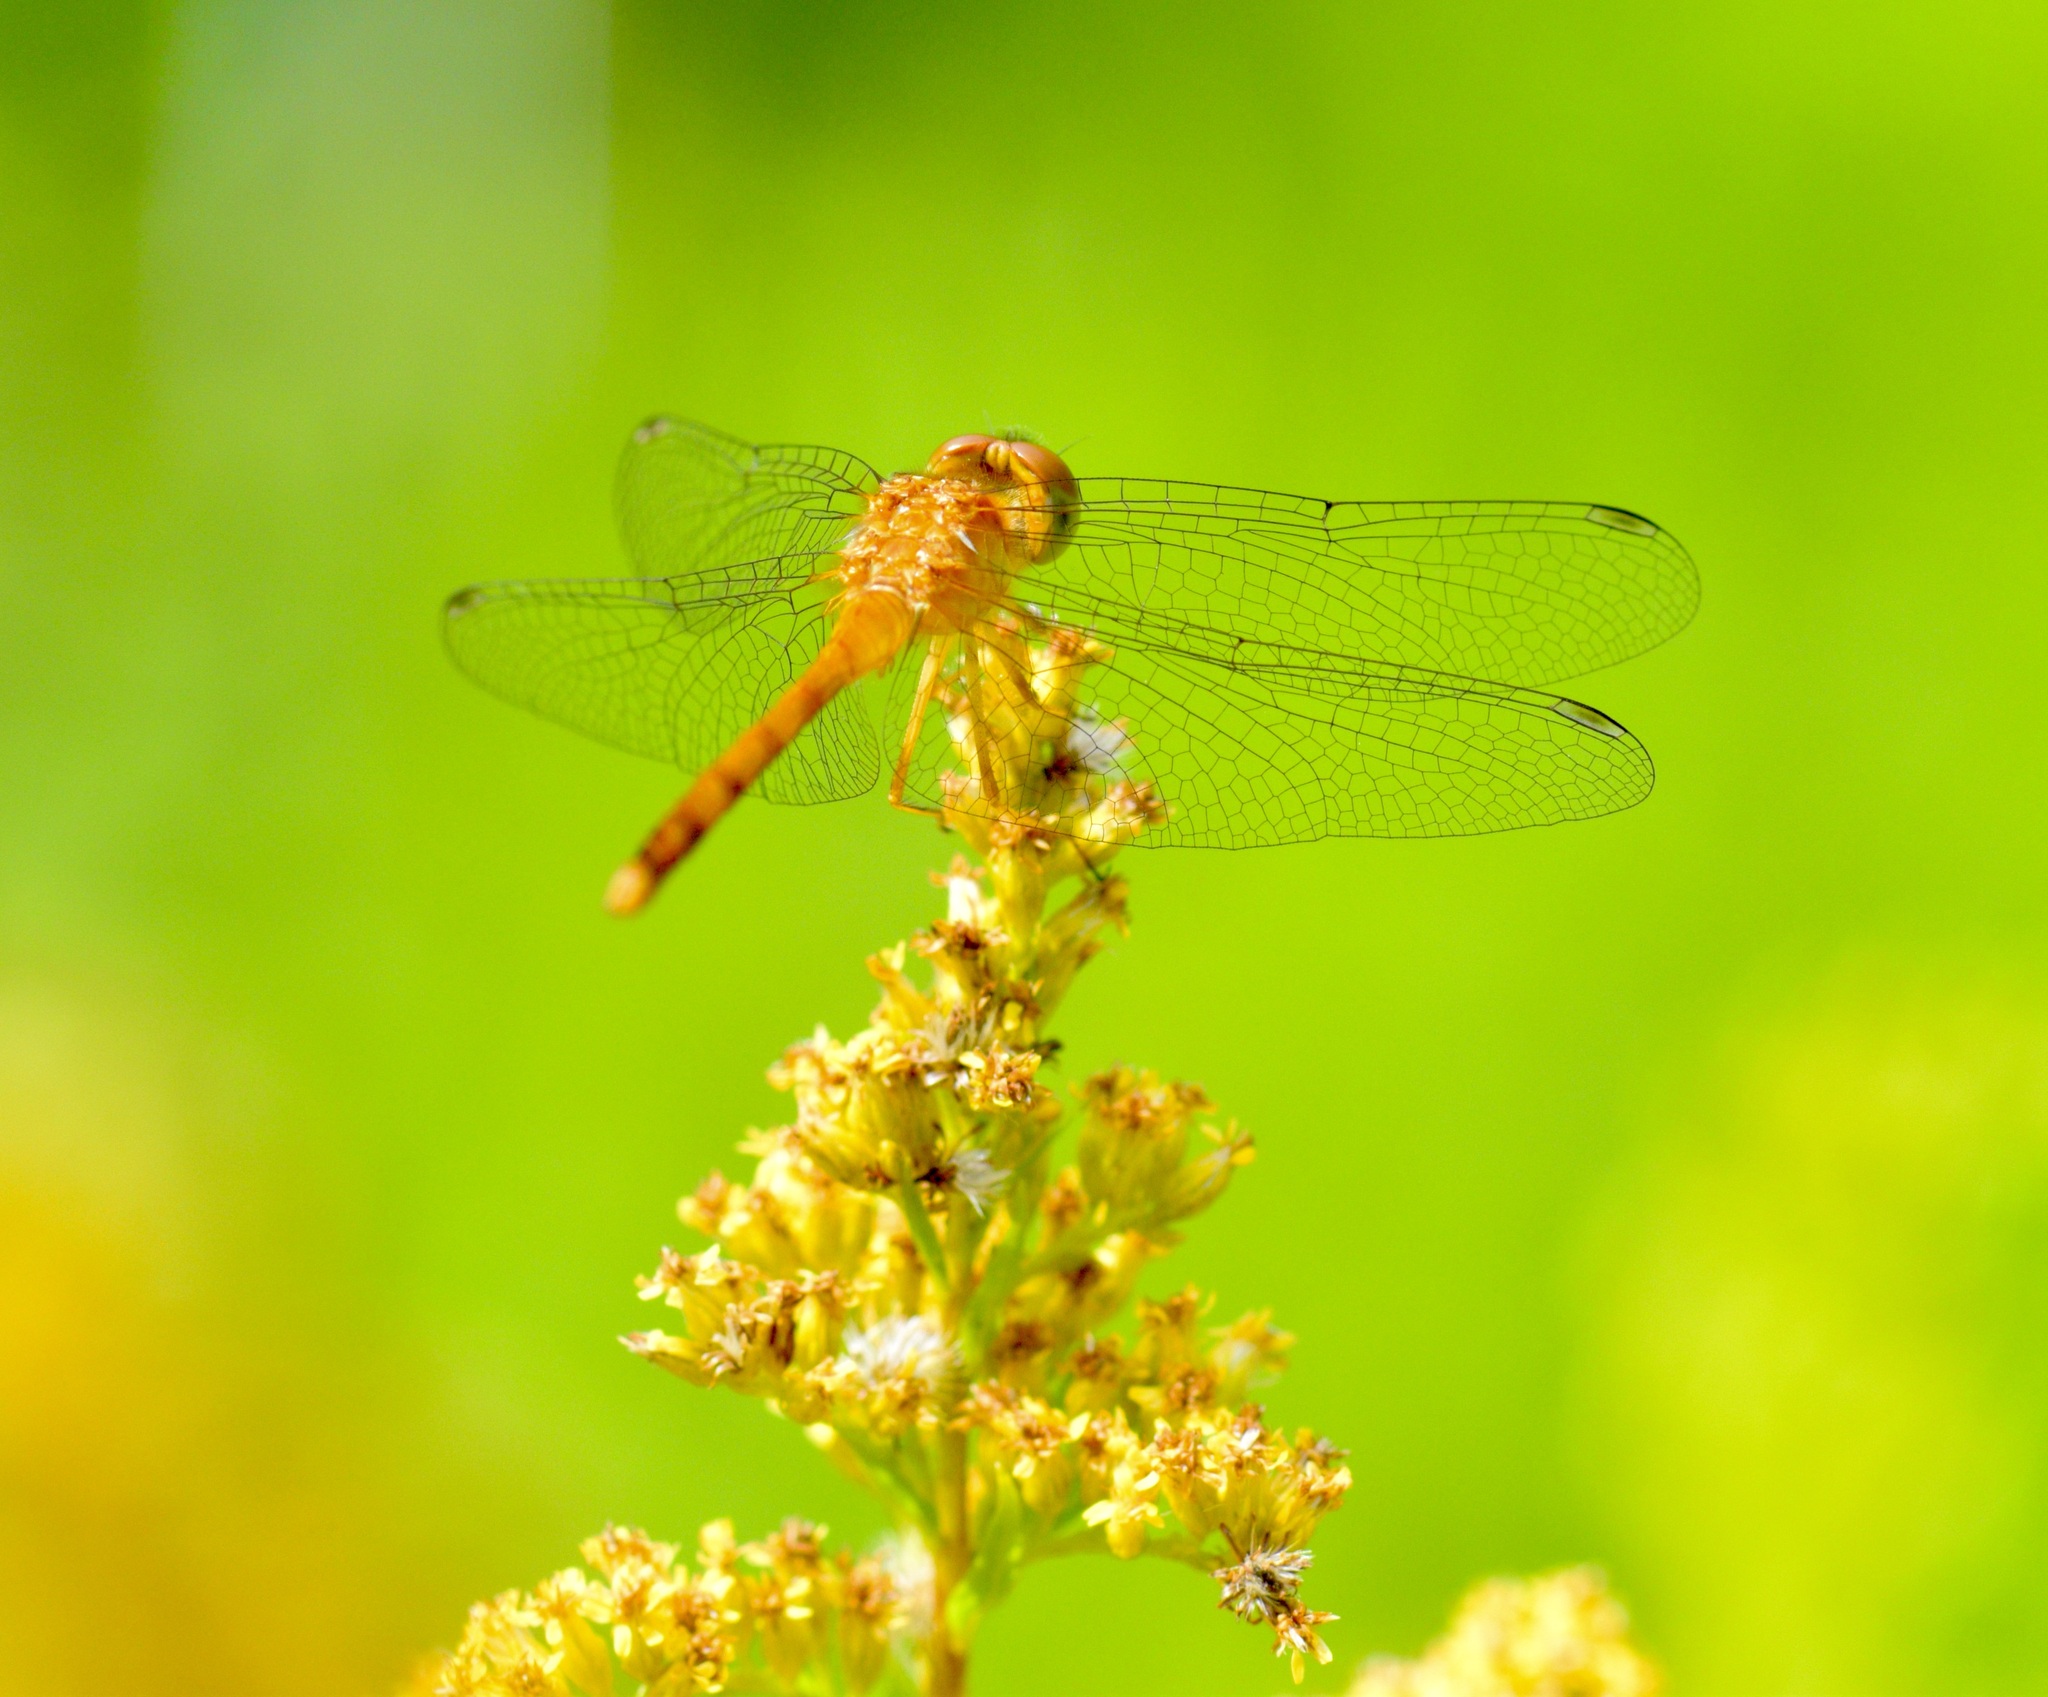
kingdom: Animalia
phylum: Arthropoda
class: Insecta
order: Odonata
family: Libellulidae
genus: Sympetrum
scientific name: Sympetrum vicinum
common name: Autumn meadowhawk
